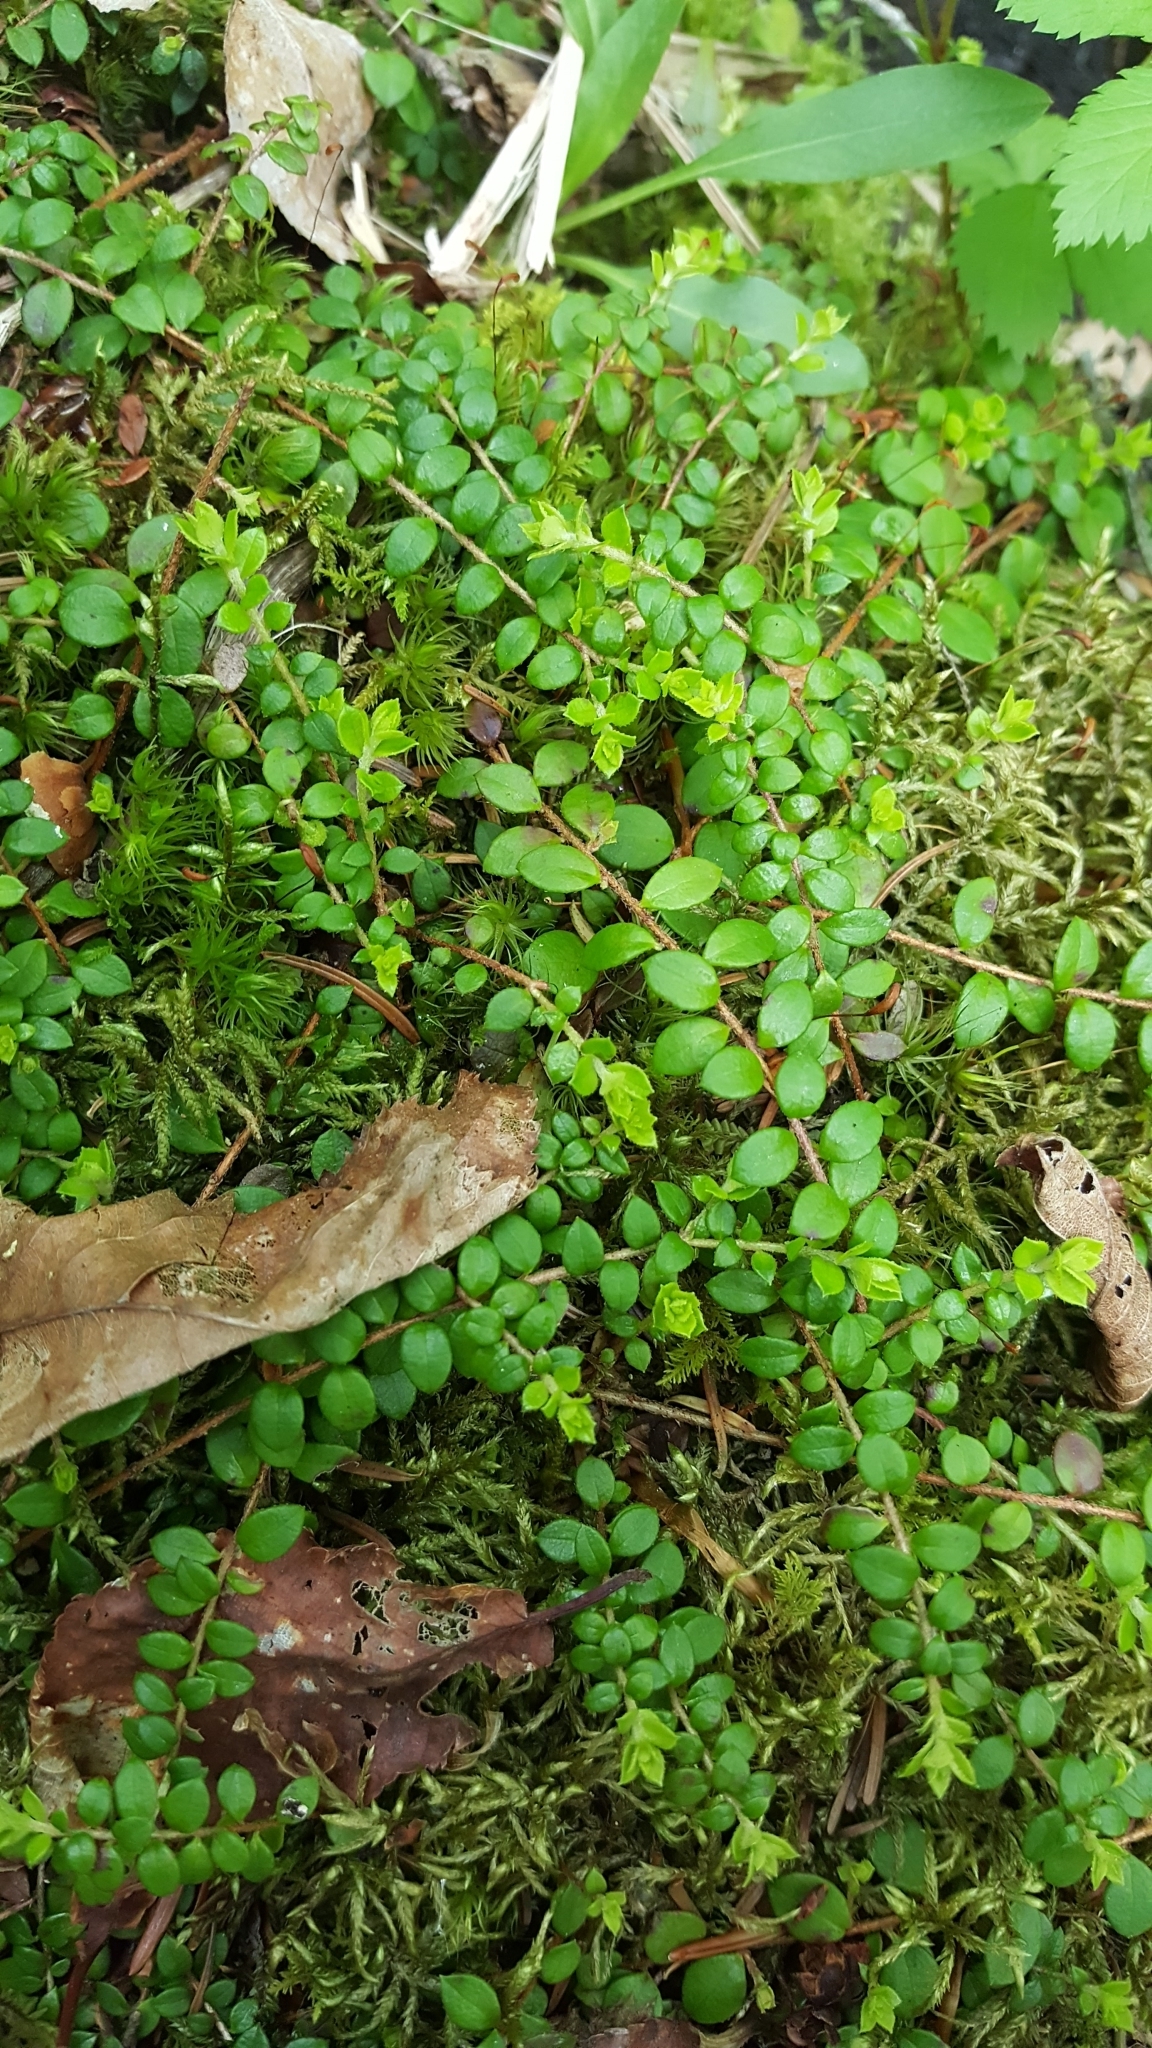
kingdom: Plantae
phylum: Tracheophyta
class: Magnoliopsida
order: Ericales
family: Ericaceae
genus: Gaultheria
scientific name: Gaultheria hispidula
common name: Cancer wintergreen
